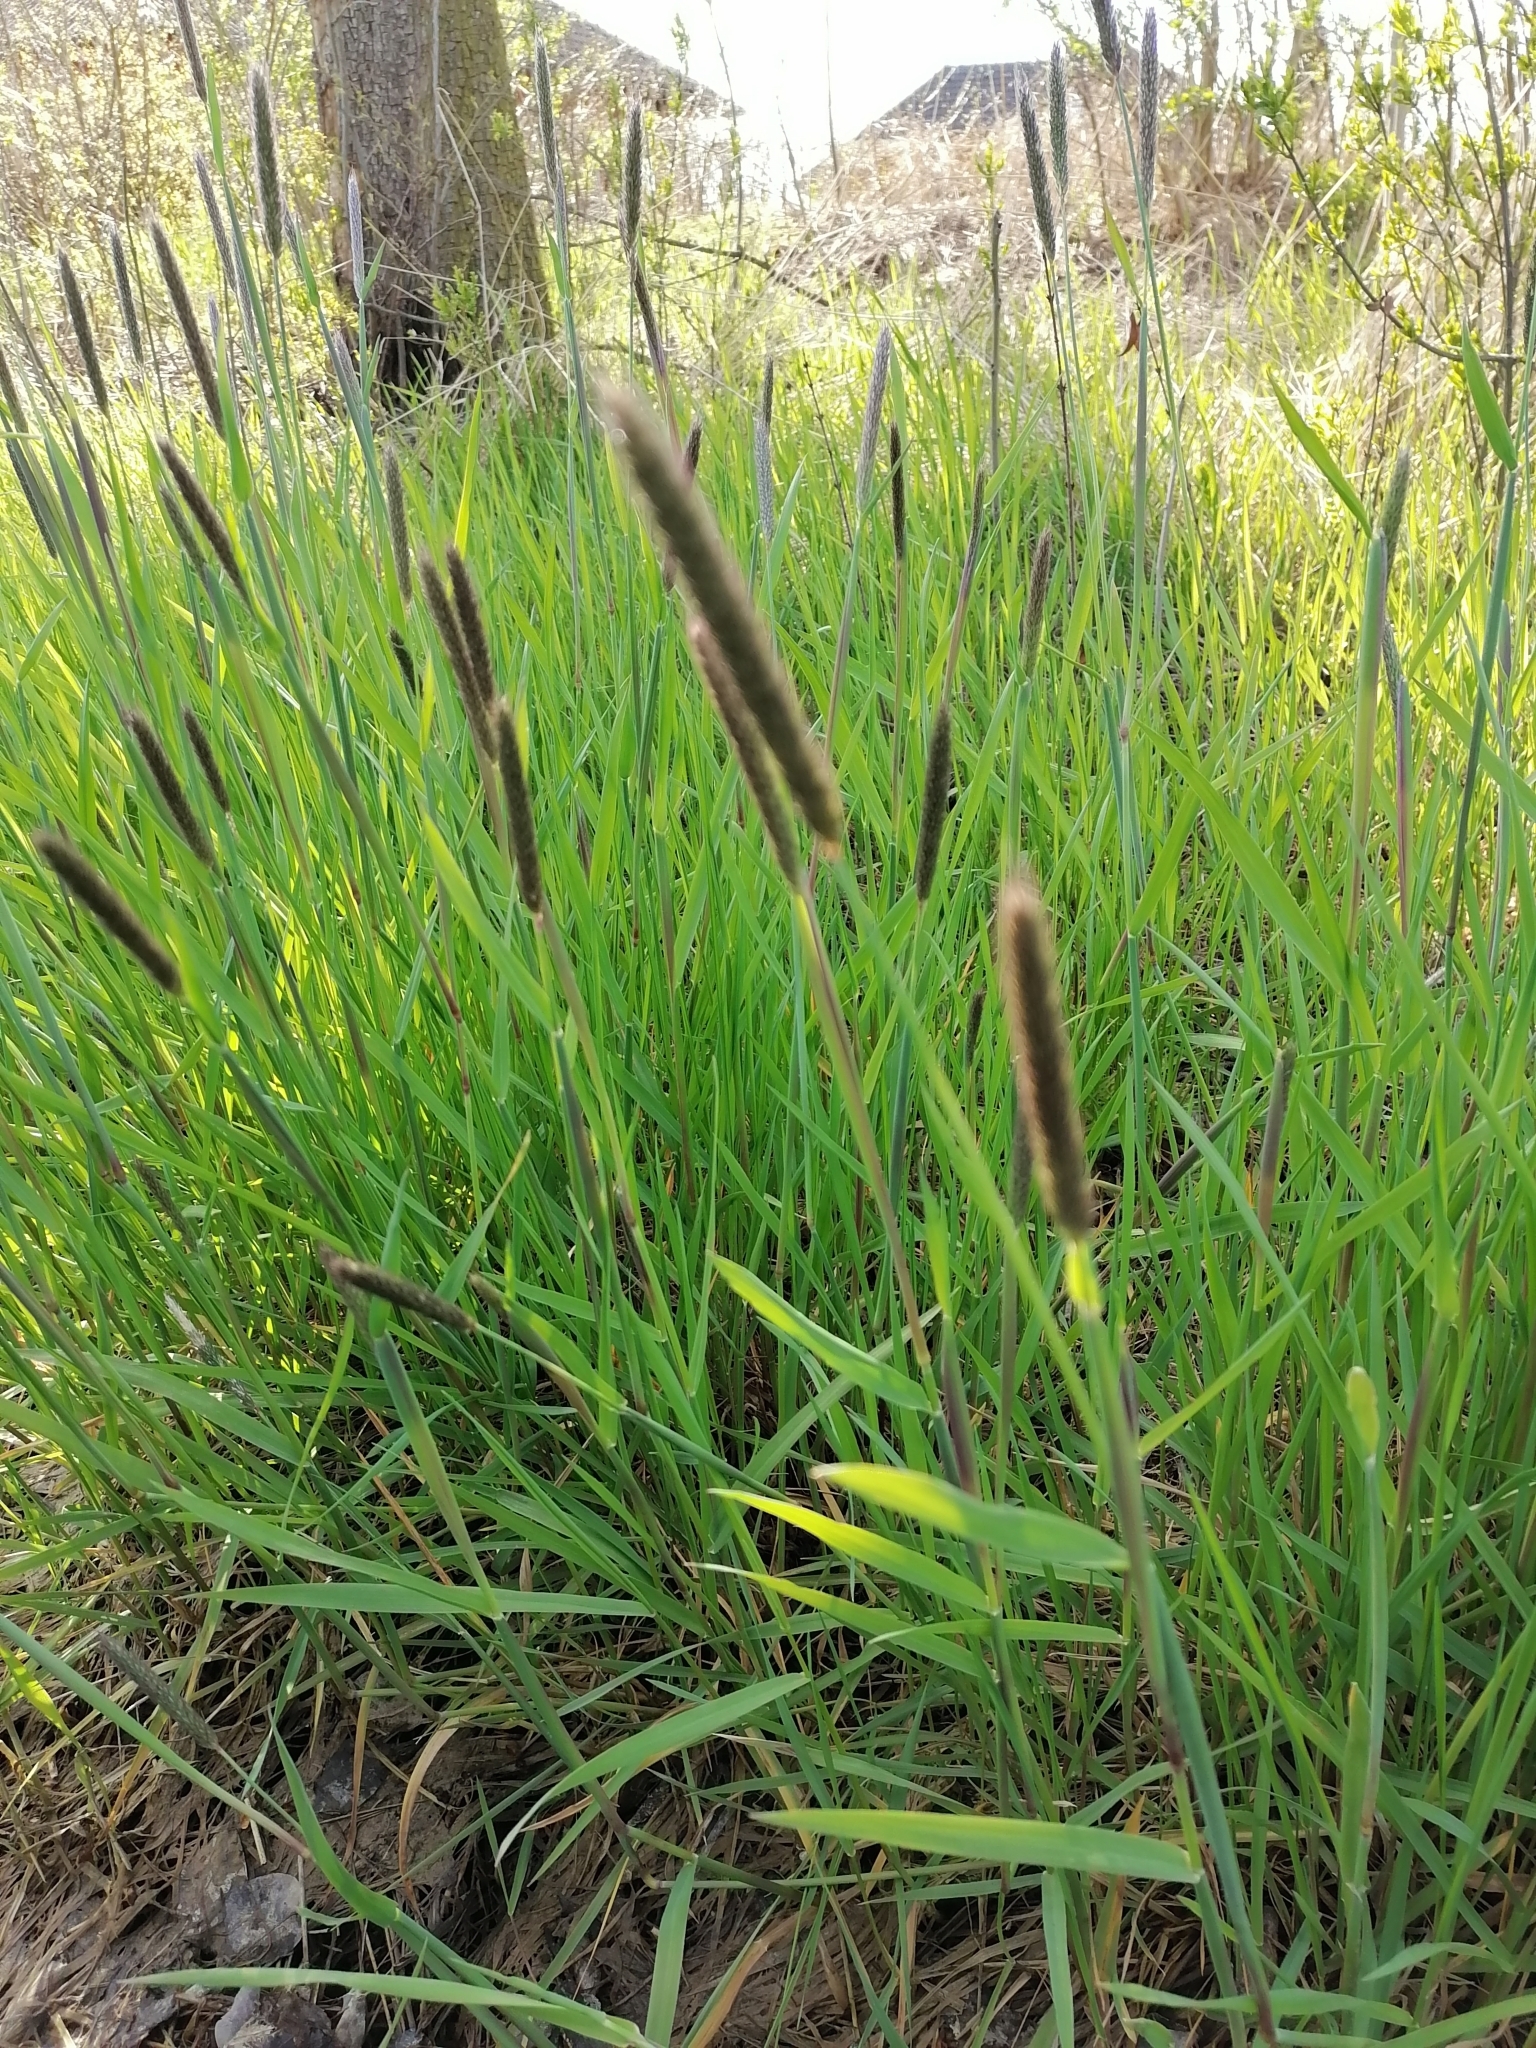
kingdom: Plantae
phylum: Tracheophyta
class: Liliopsida
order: Poales
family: Poaceae
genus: Alopecurus
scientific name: Alopecurus pratensis
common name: Meadow foxtail
